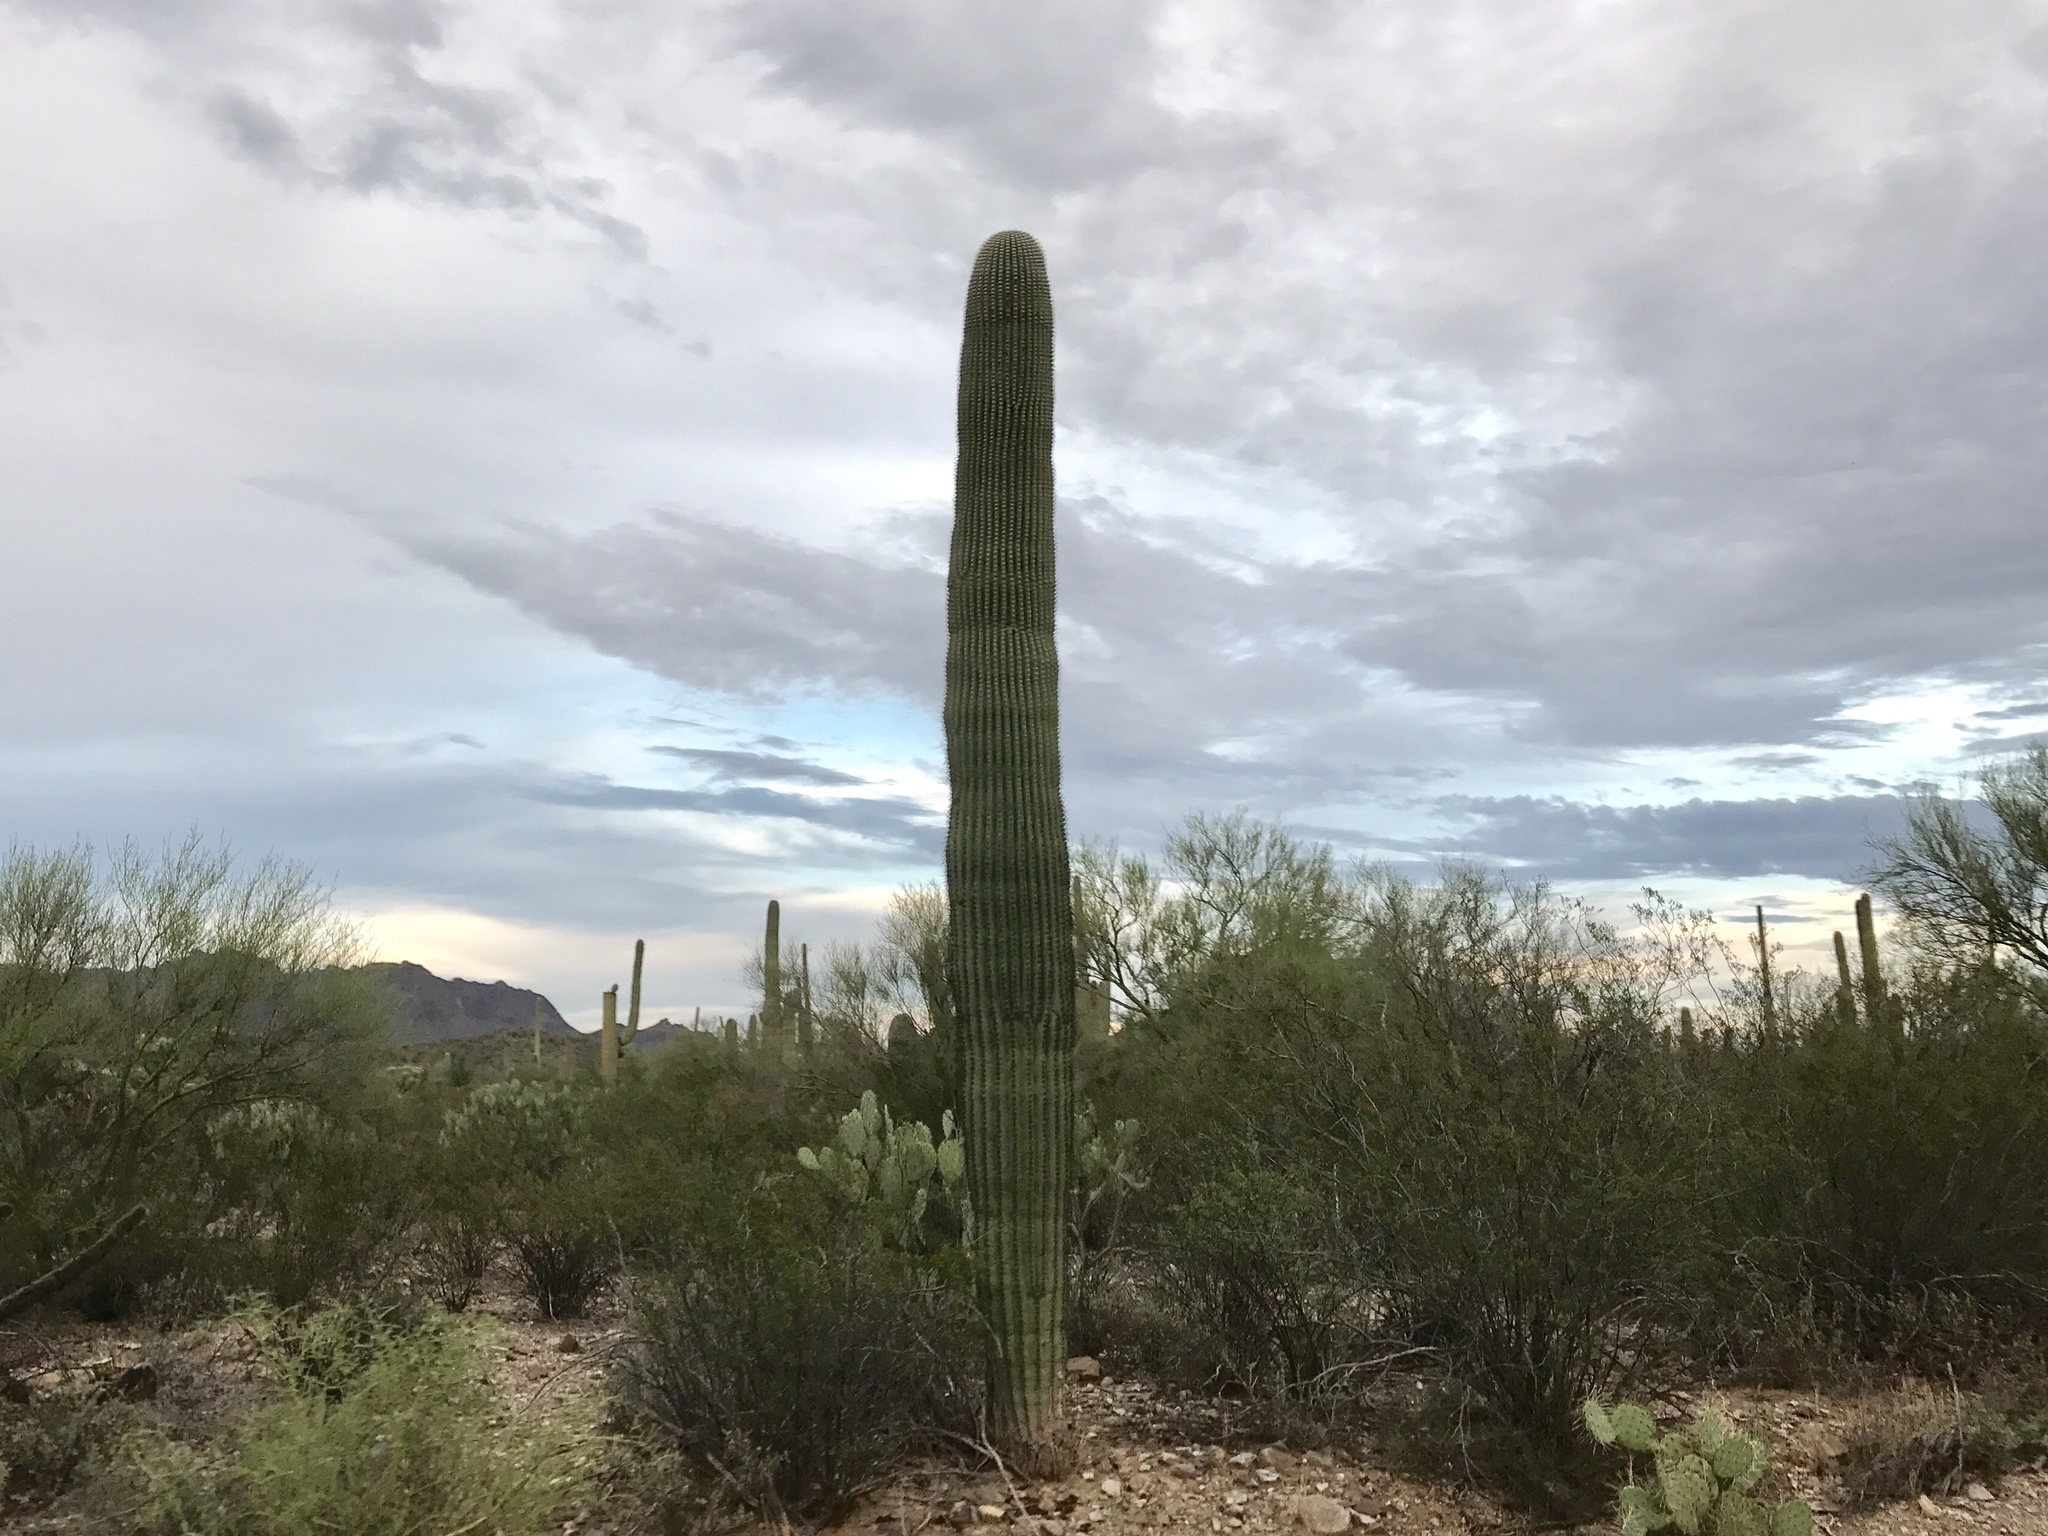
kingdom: Plantae
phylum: Tracheophyta
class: Magnoliopsida
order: Caryophyllales
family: Cactaceae
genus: Carnegiea
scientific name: Carnegiea gigantea
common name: Saguaro
